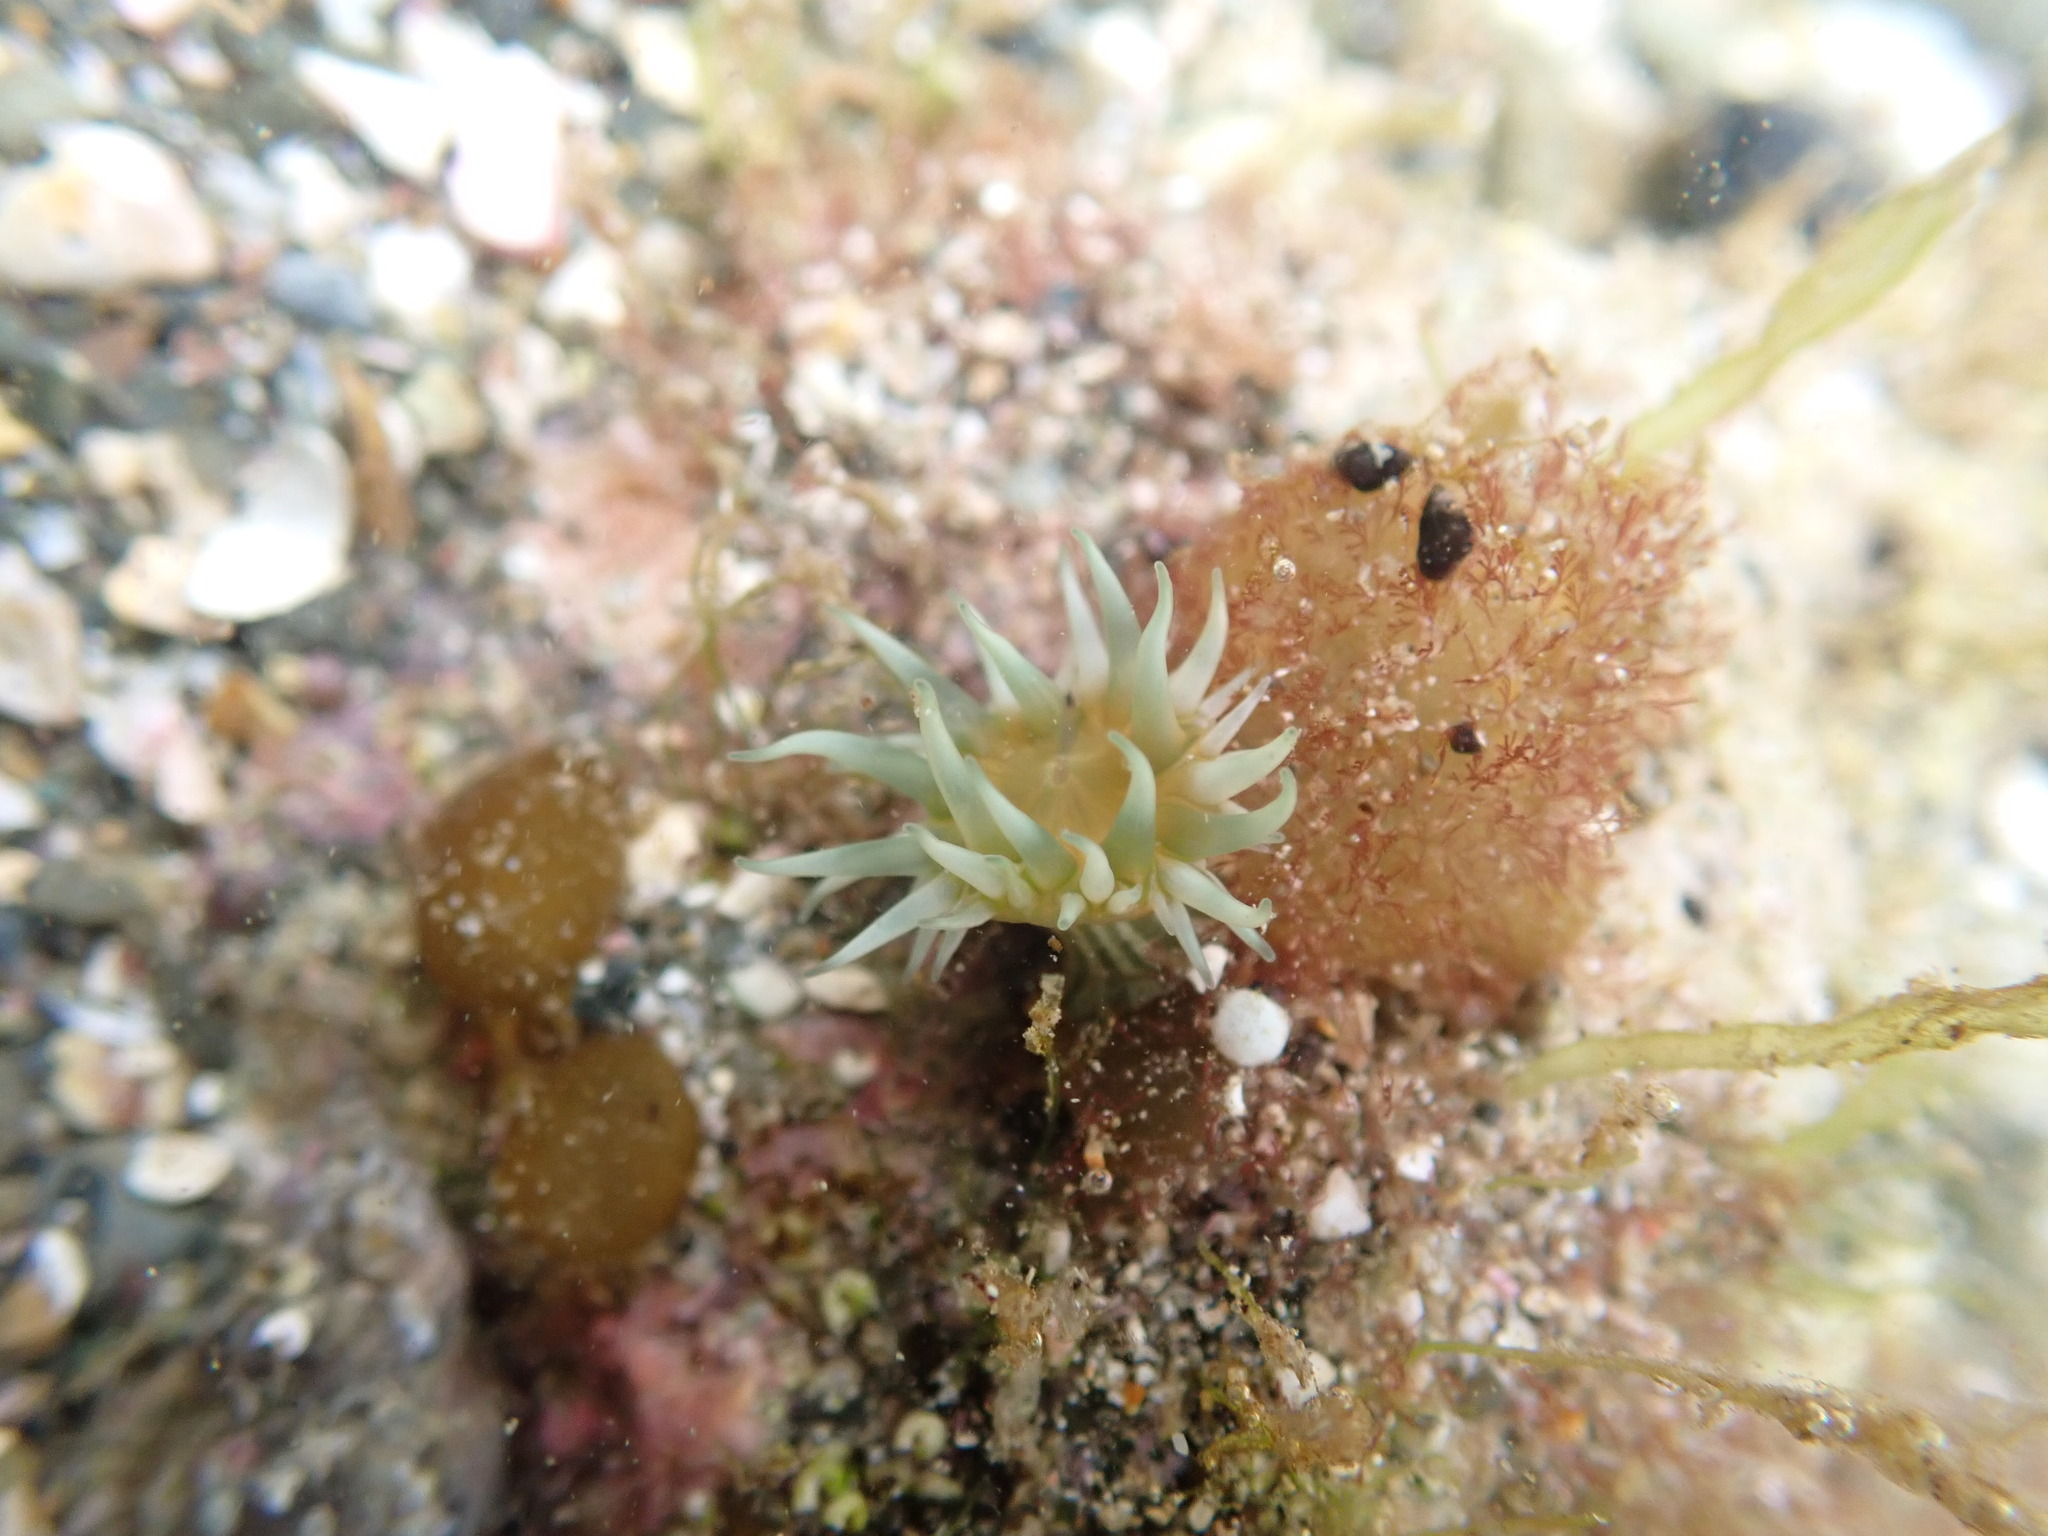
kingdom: Animalia
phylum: Cnidaria
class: Anthozoa
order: Actiniaria
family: Sagartiidae
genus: Anthothoe
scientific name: Anthothoe albocincta
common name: Orange striped anemone
